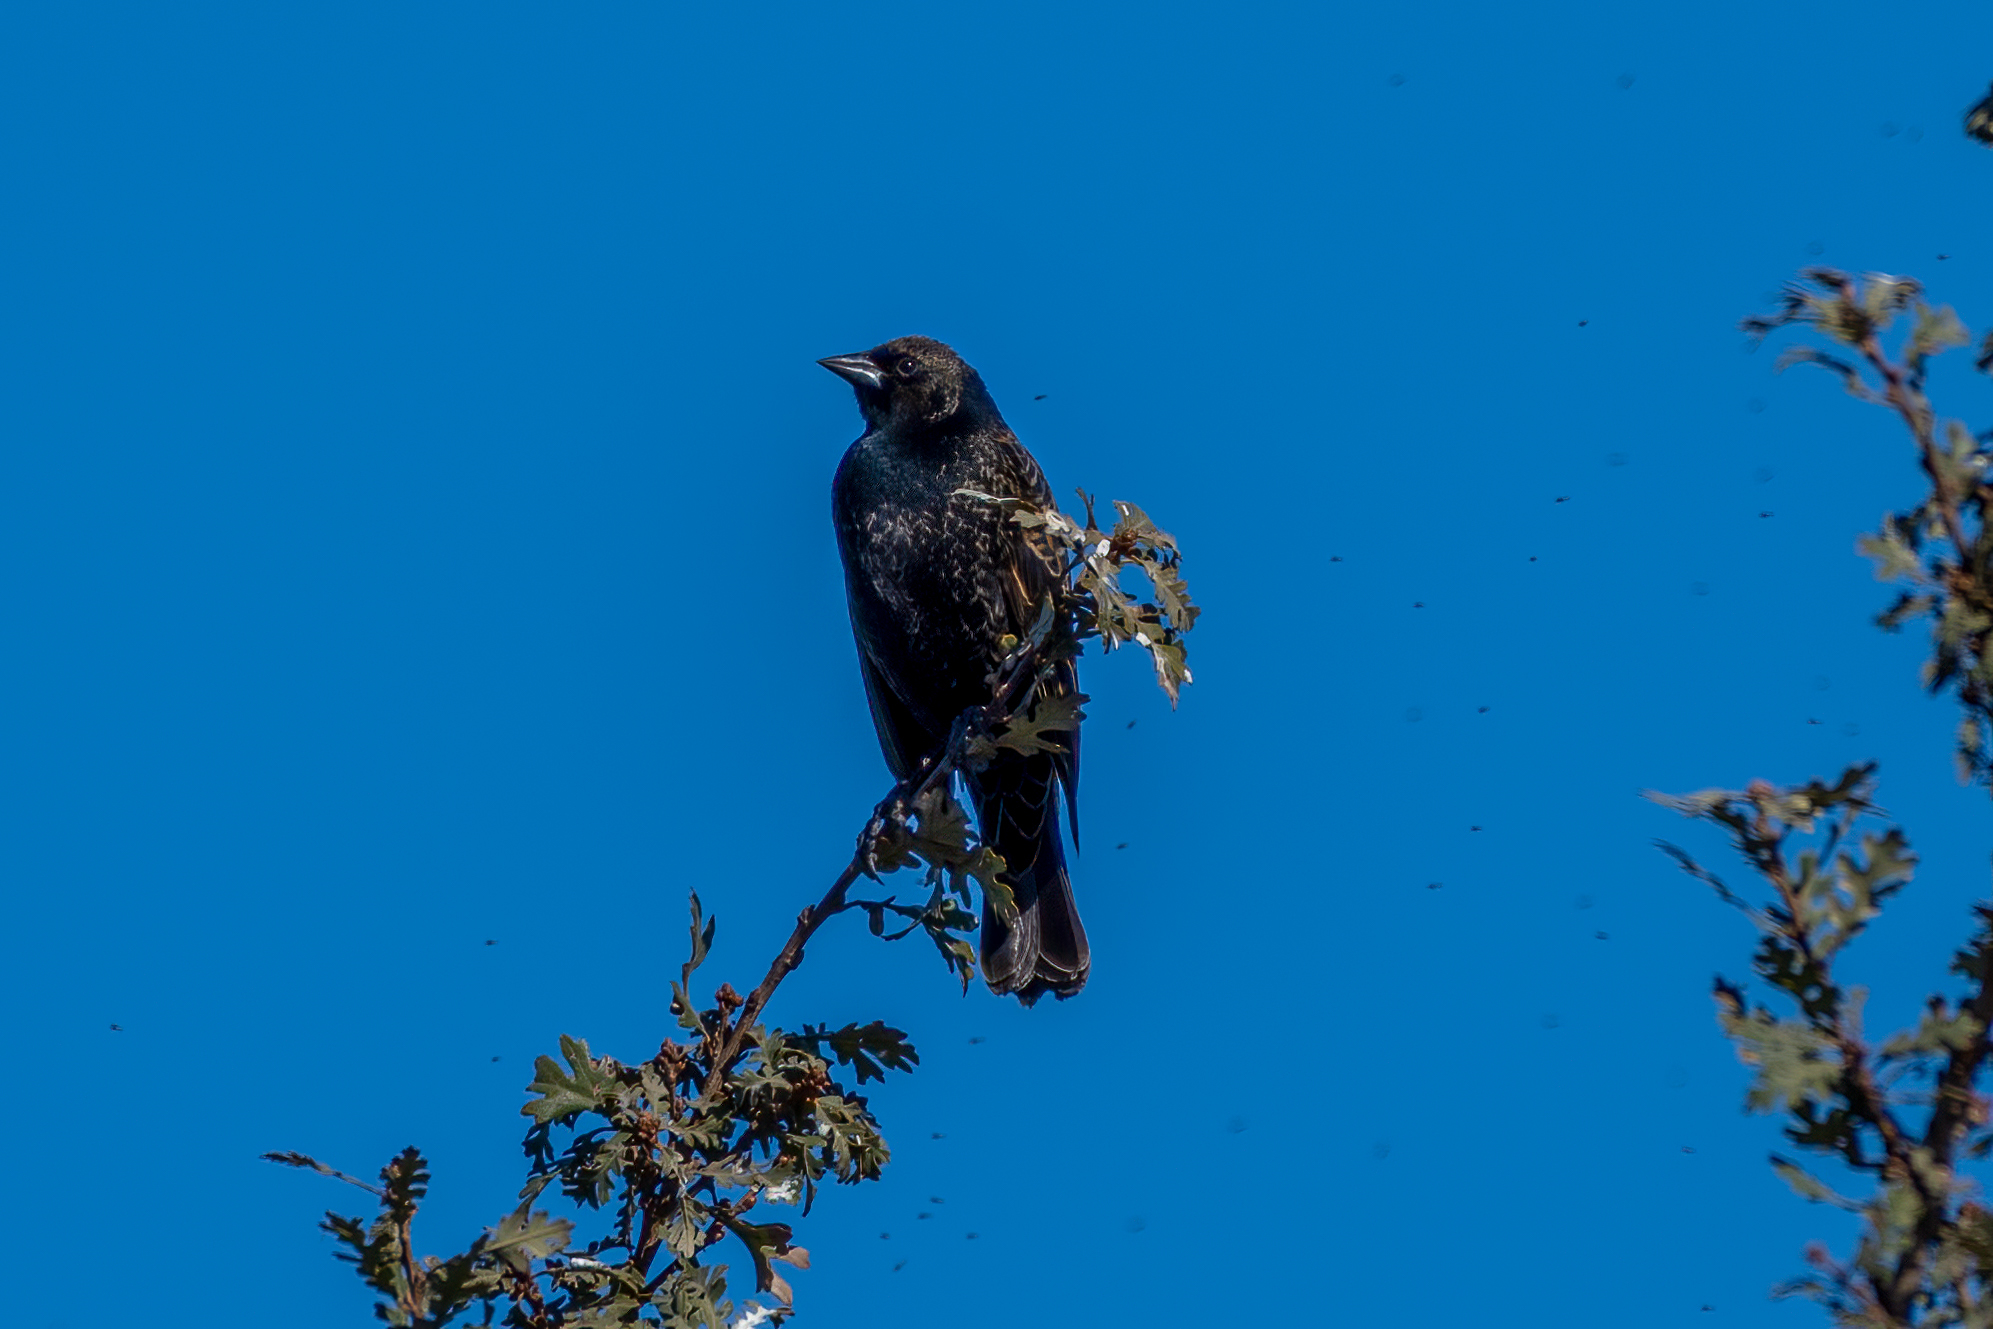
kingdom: Animalia
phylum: Chordata
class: Aves
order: Passeriformes
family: Icteridae
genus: Agelaius
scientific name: Agelaius phoeniceus
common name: Red-winged blackbird
